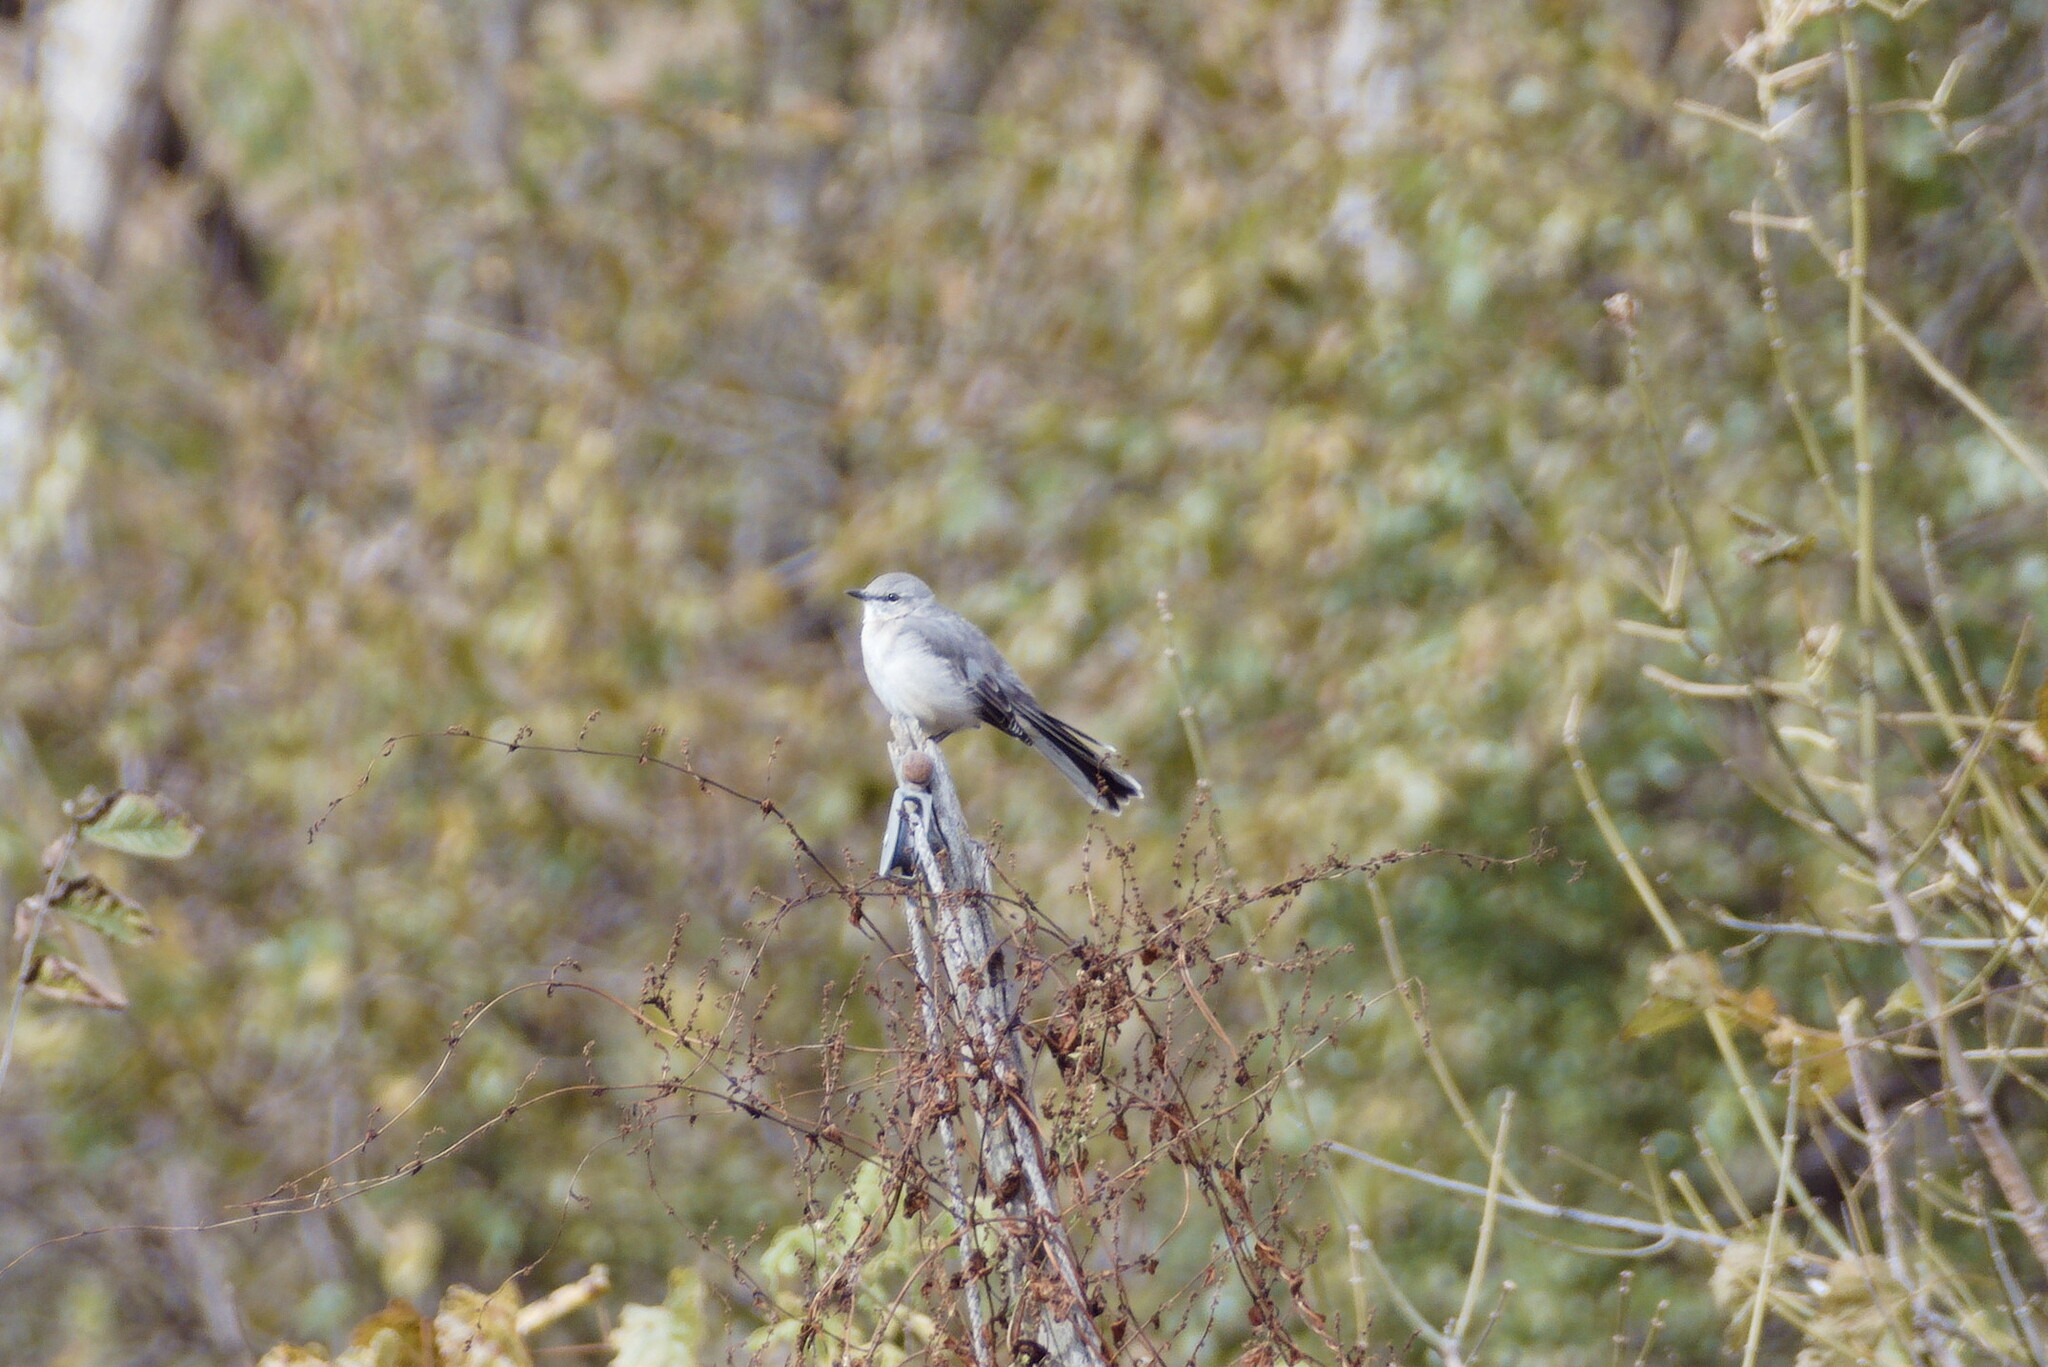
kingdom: Animalia
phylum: Chordata
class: Aves
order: Passeriformes
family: Mimidae
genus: Mimus
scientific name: Mimus polyglottos
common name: Northern mockingbird
